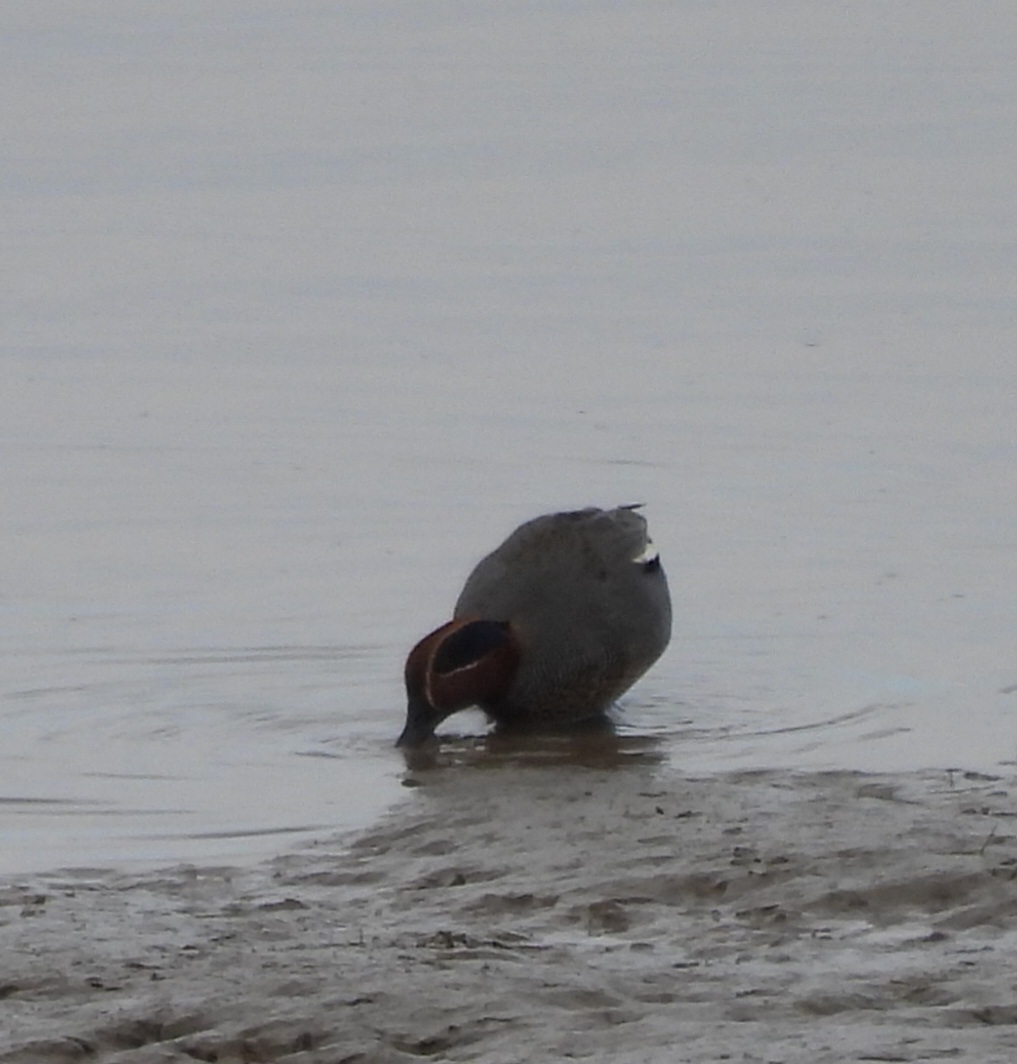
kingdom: Animalia
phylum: Chordata
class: Aves
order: Anseriformes
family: Anatidae
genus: Anas
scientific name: Anas crecca
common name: Eurasian teal
